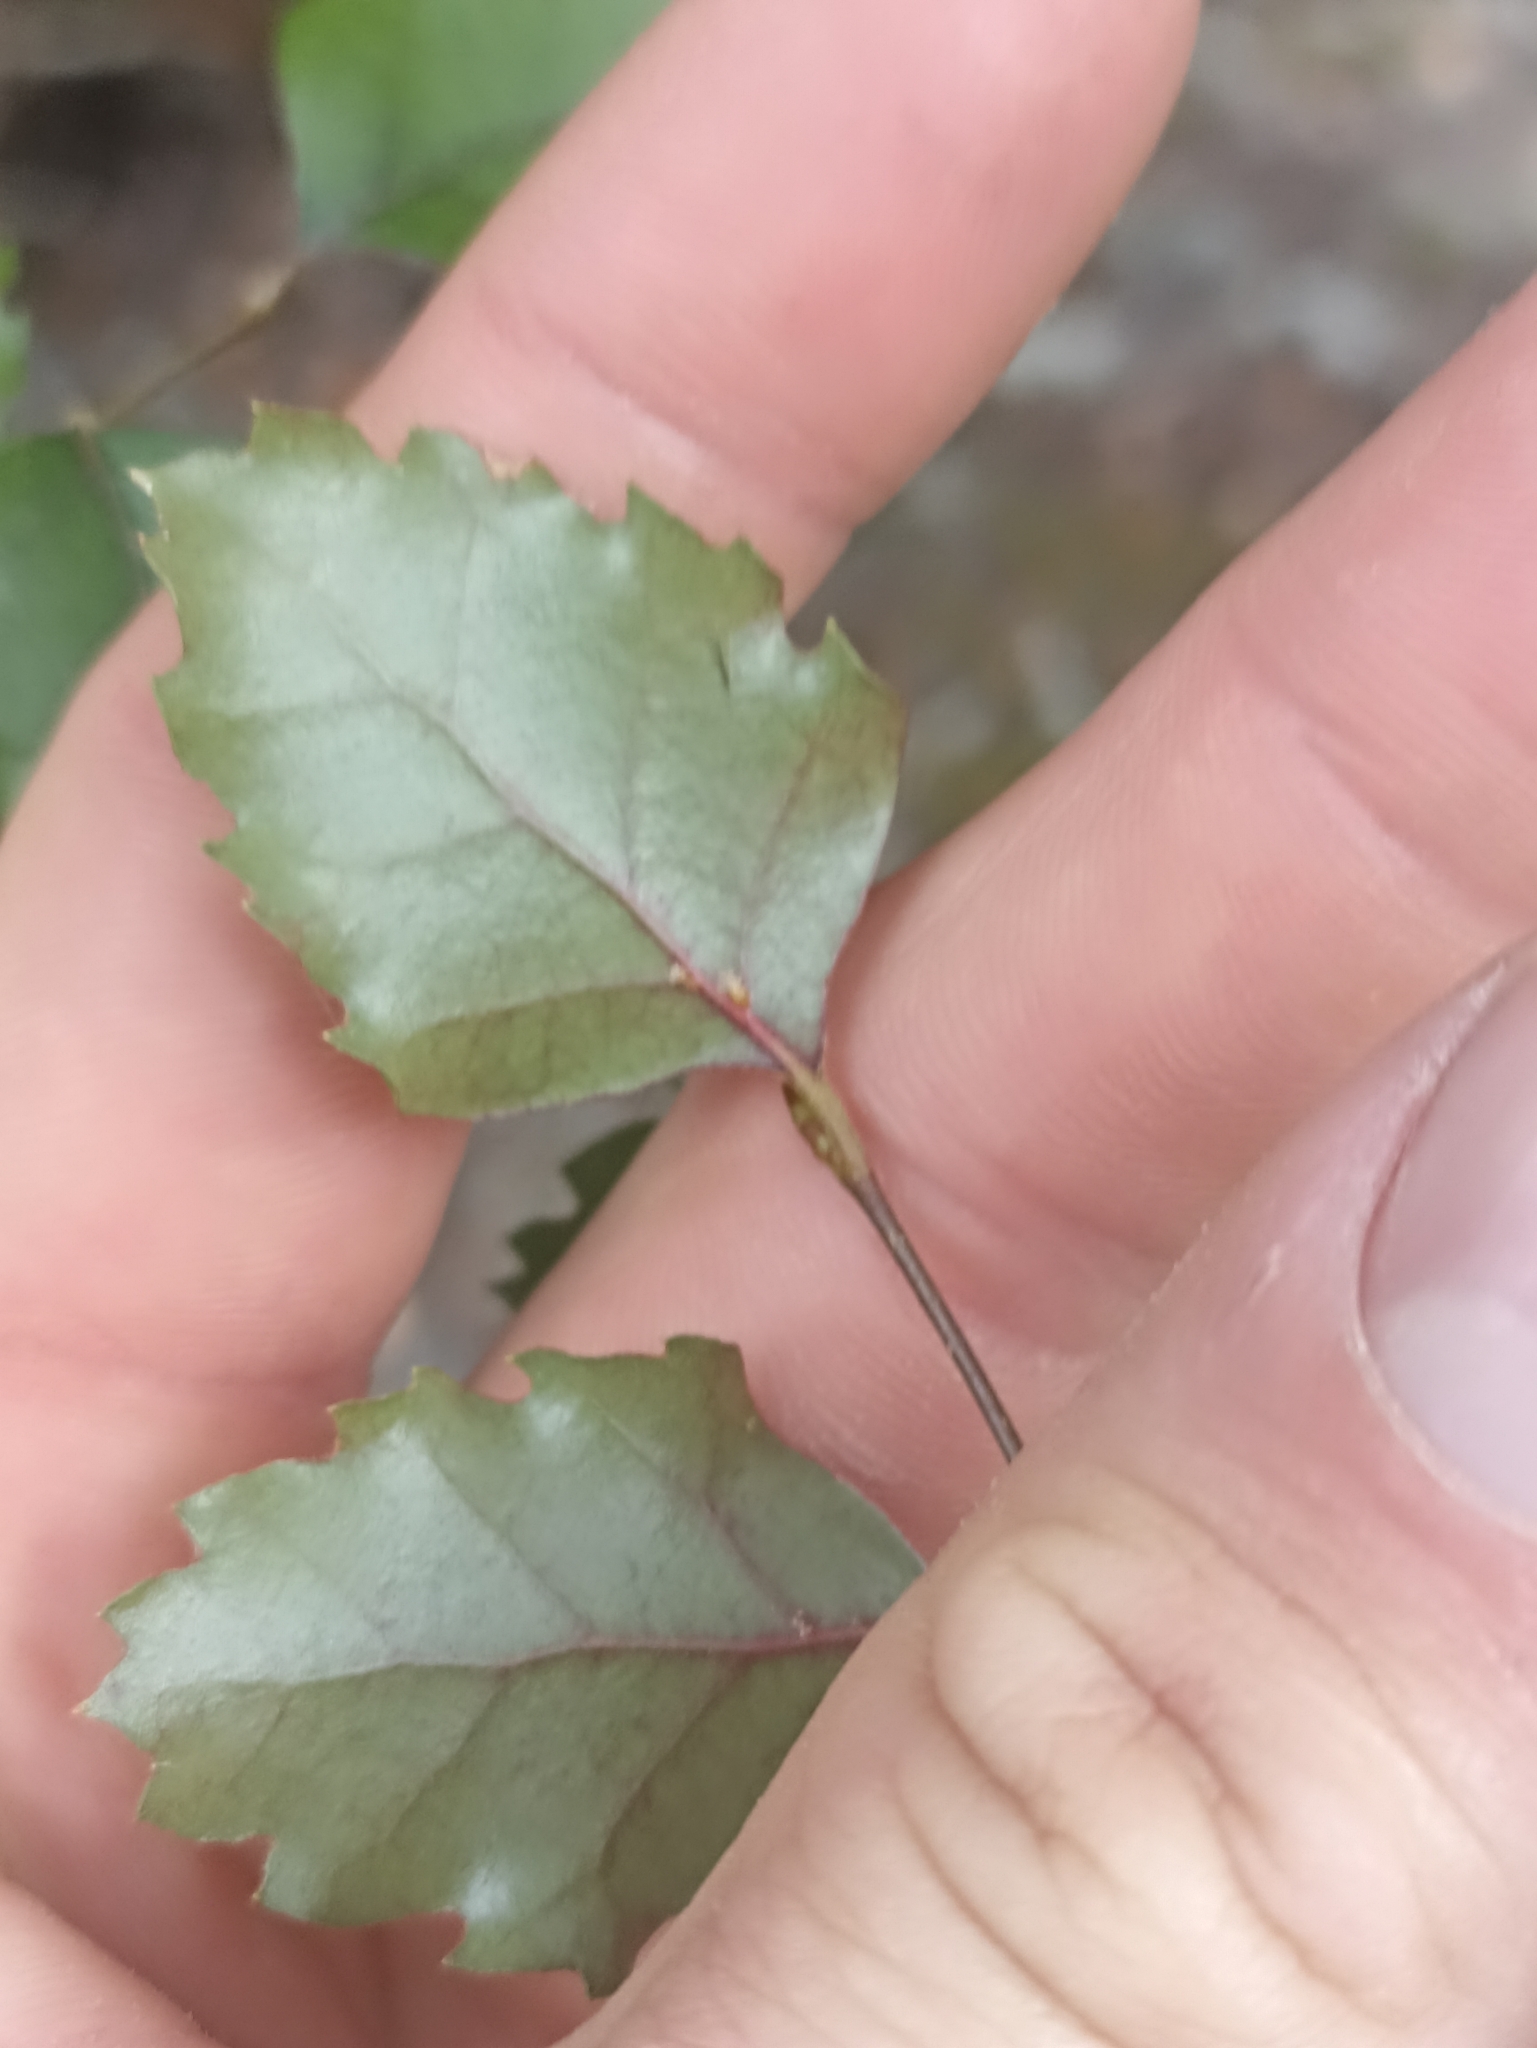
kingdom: Plantae
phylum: Tracheophyta
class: Magnoliopsida
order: Fagales
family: Nothofagaceae
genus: Nothofagus
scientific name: Nothofagus fusca
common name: Red beech
